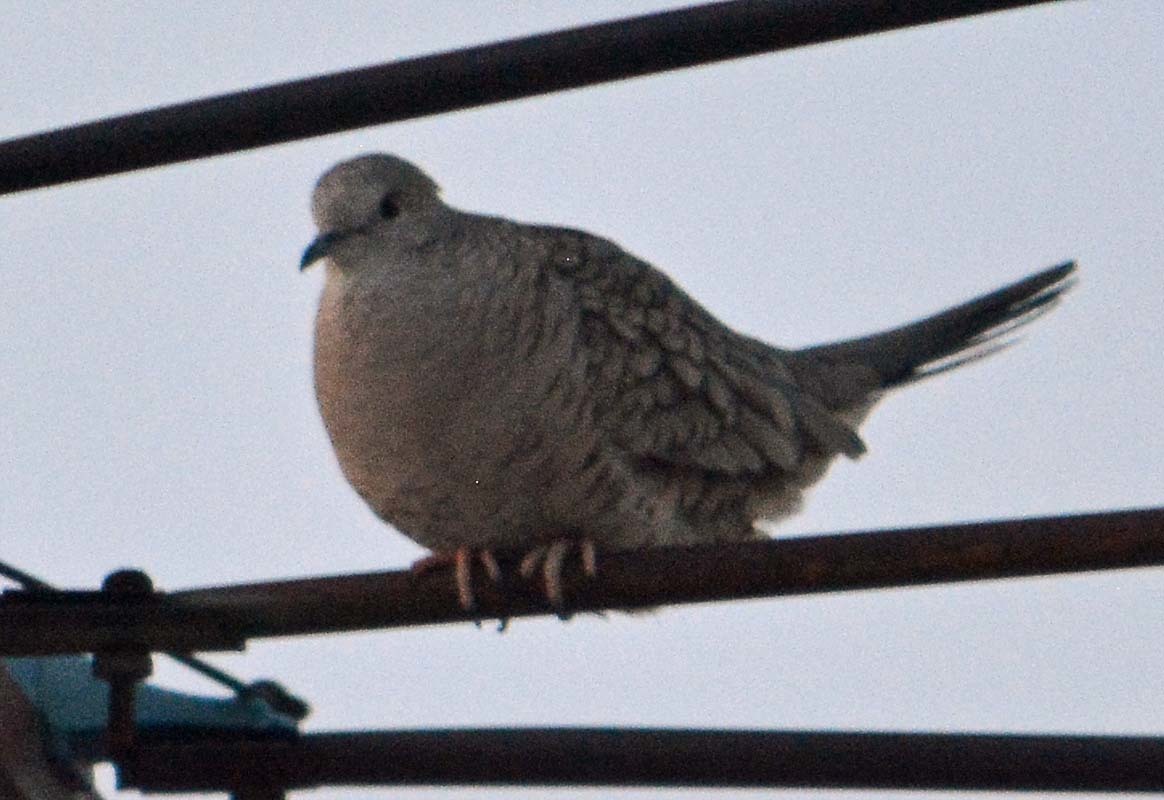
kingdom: Animalia
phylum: Chordata
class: Aves
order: Columbiformes
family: Columbidae
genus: Columbina
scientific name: Columbina inca
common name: Inca dove
